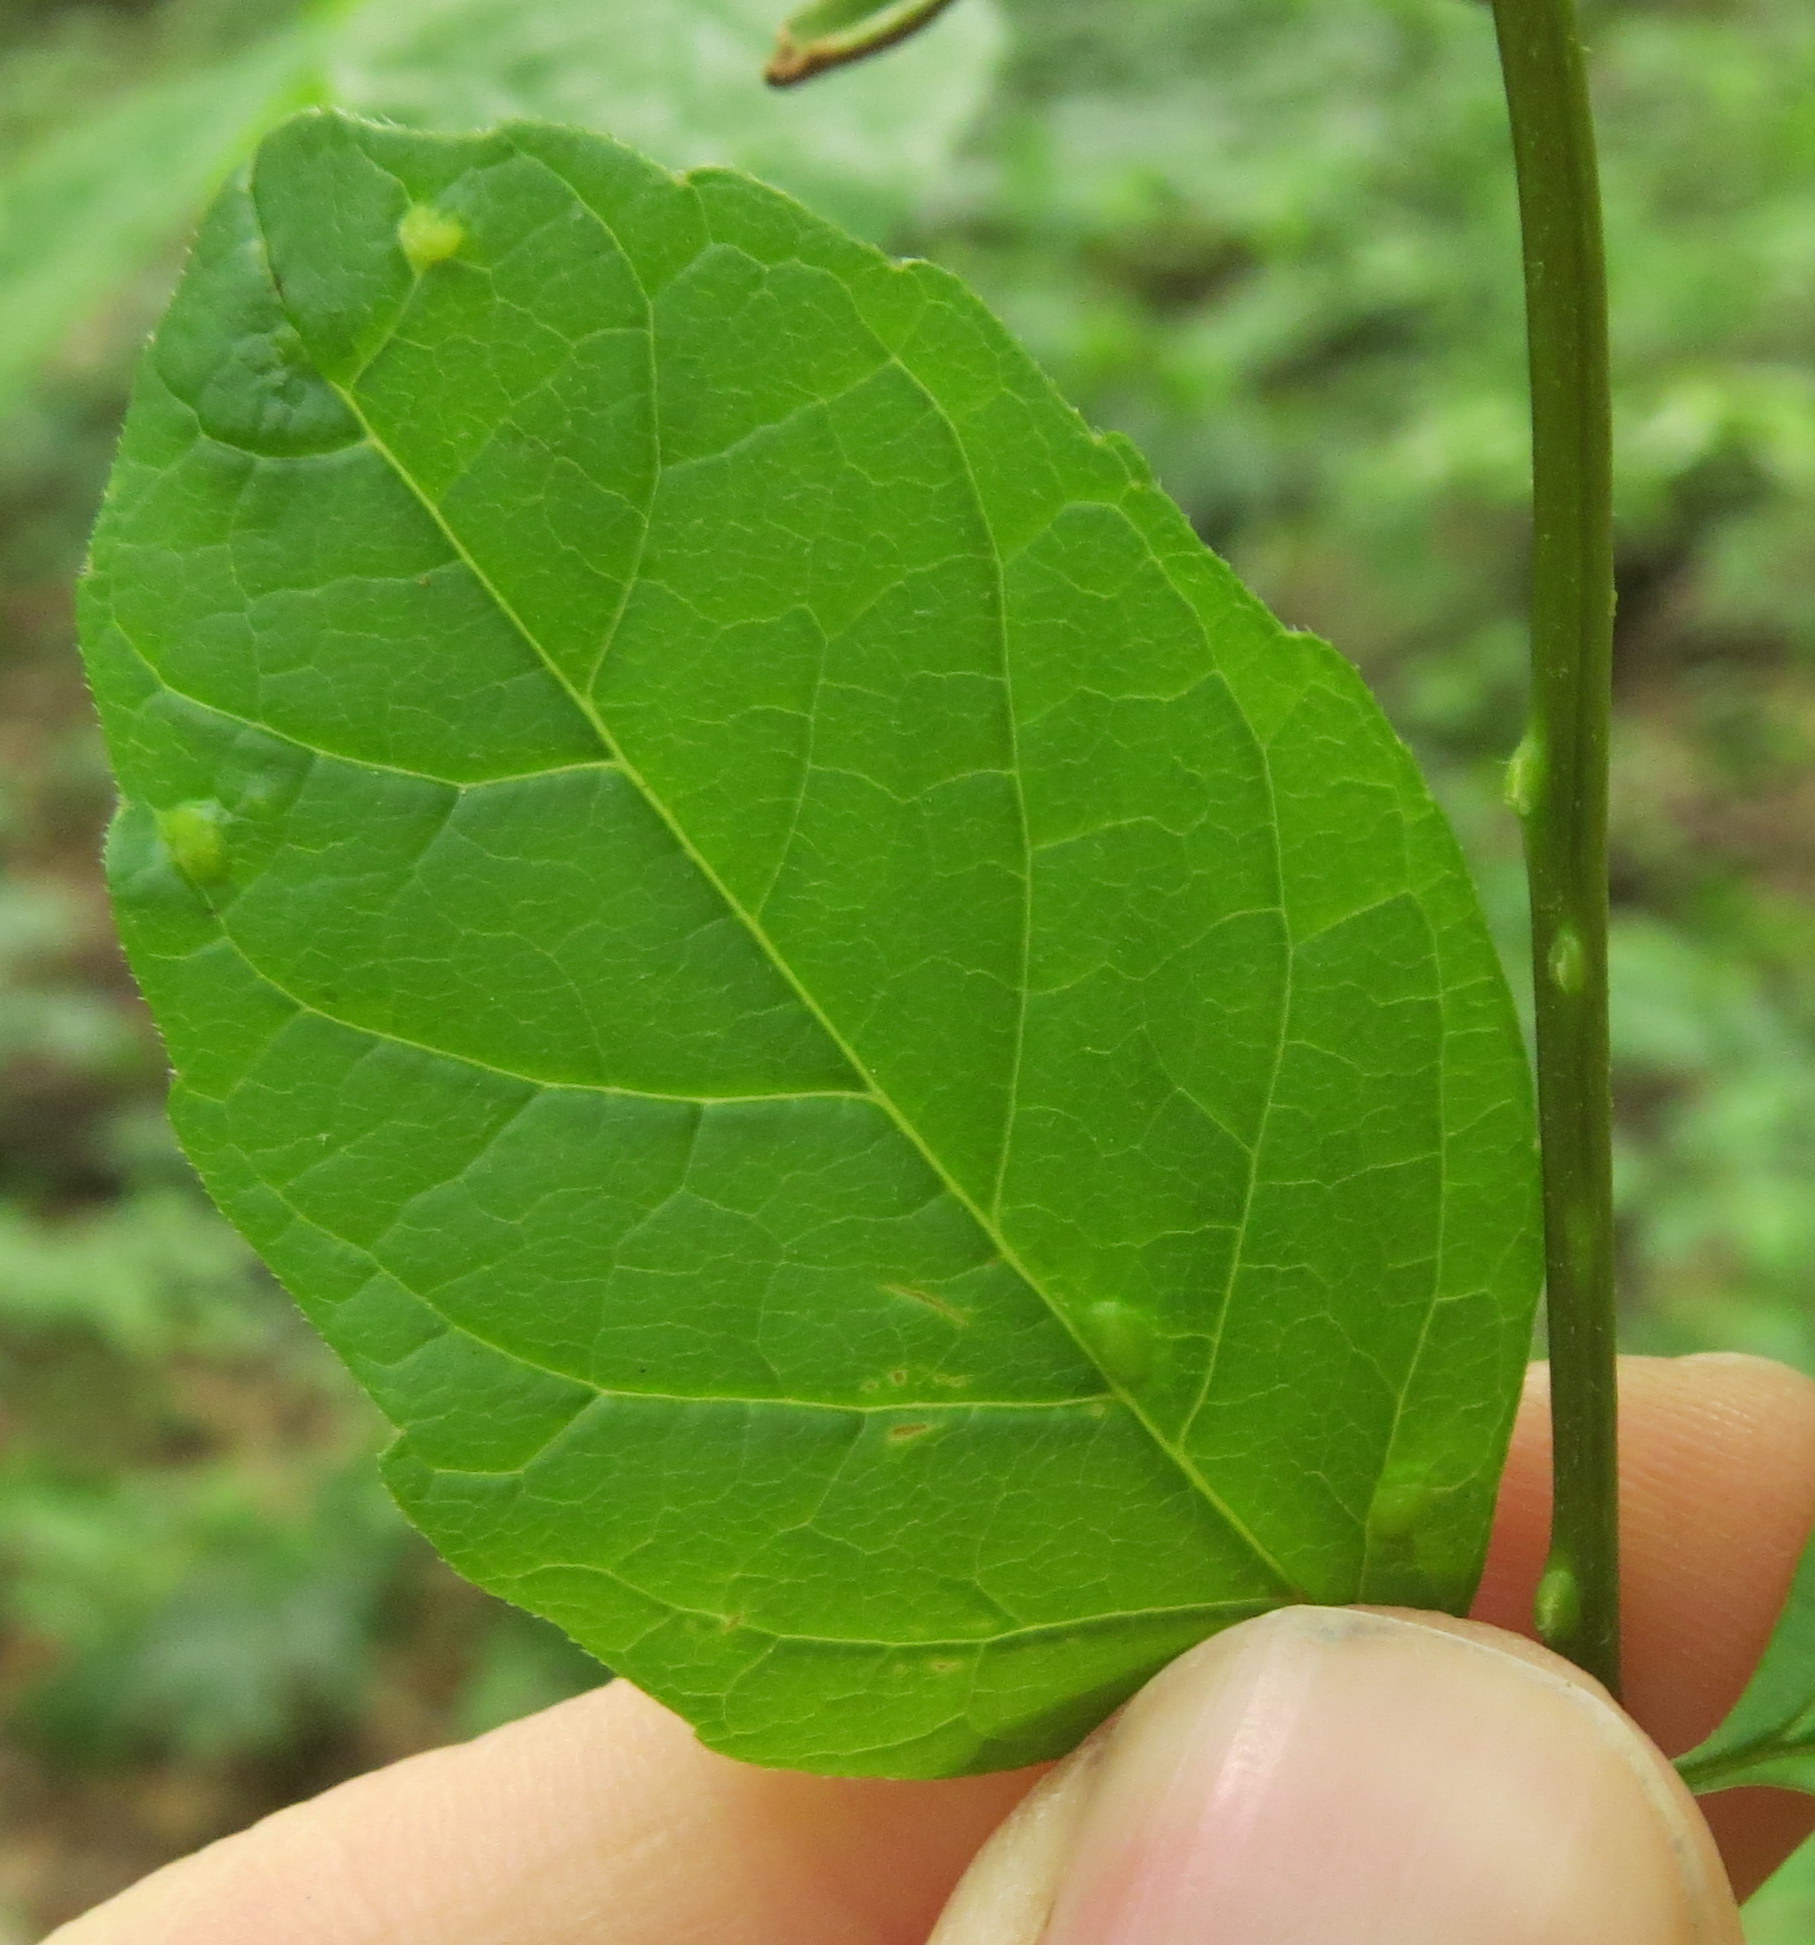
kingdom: Animalia
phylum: Arthropoda
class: Arachnida
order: Trombidiformes
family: Eriophyidae
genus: Aceria
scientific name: Aceria fraxinicola
